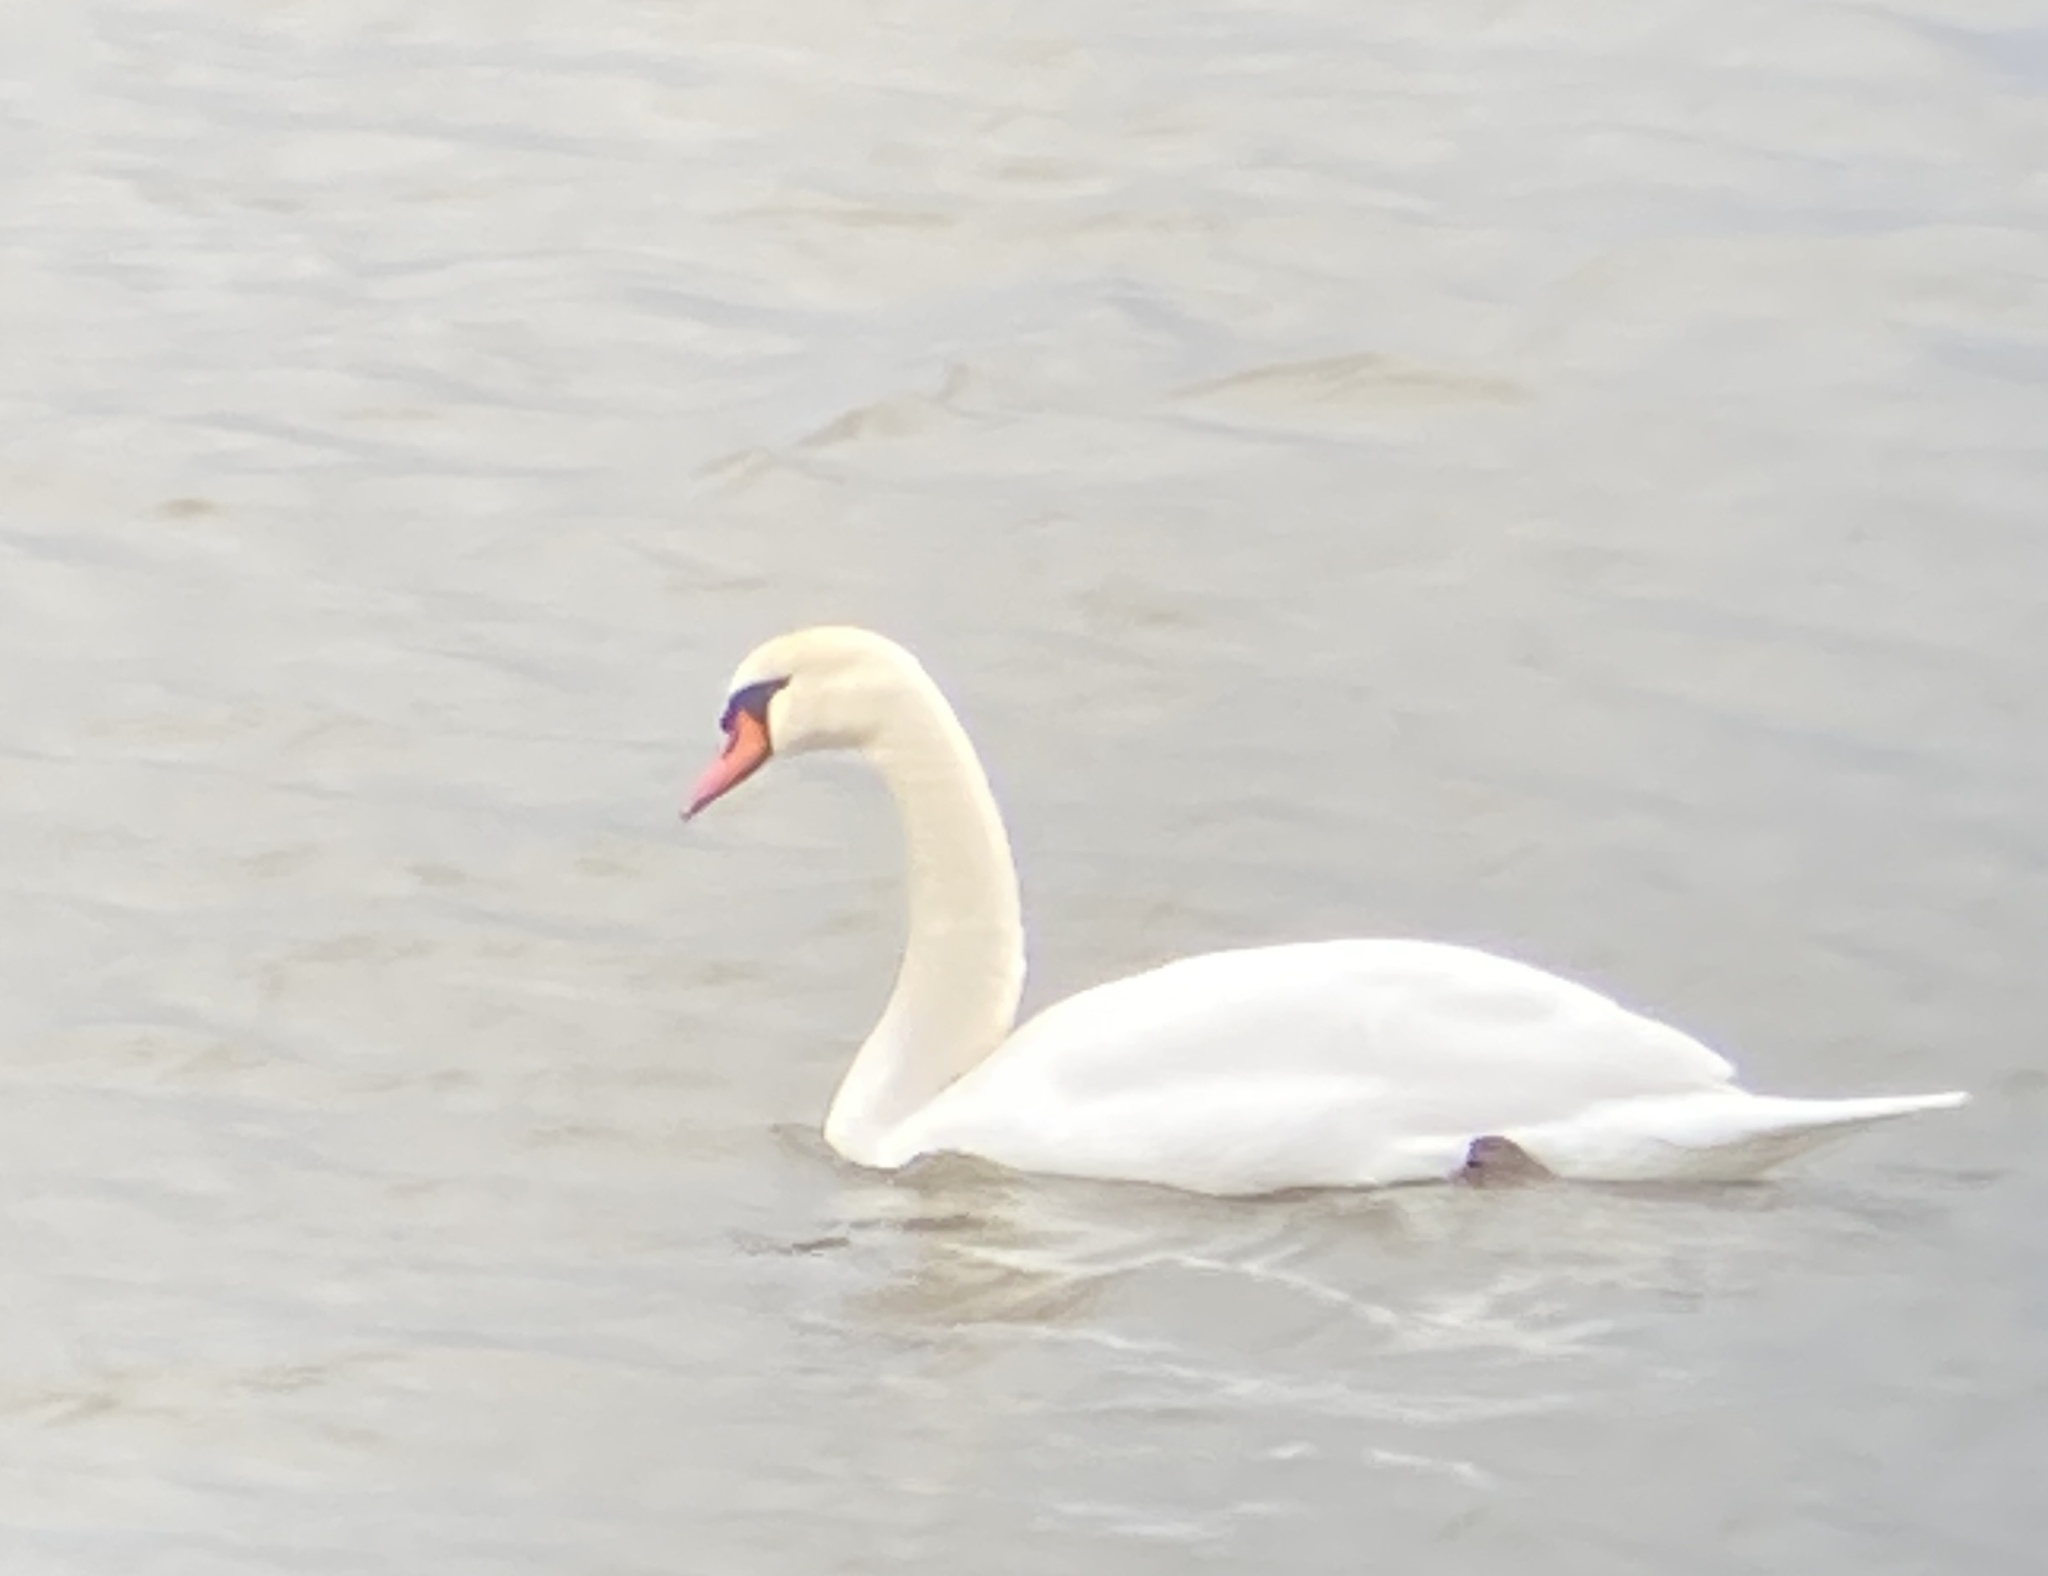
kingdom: Animalia
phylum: Chordata
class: Aves
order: Anseriformes
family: Anatidae
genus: Cygnus
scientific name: Cygnus olor
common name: Mute swan
